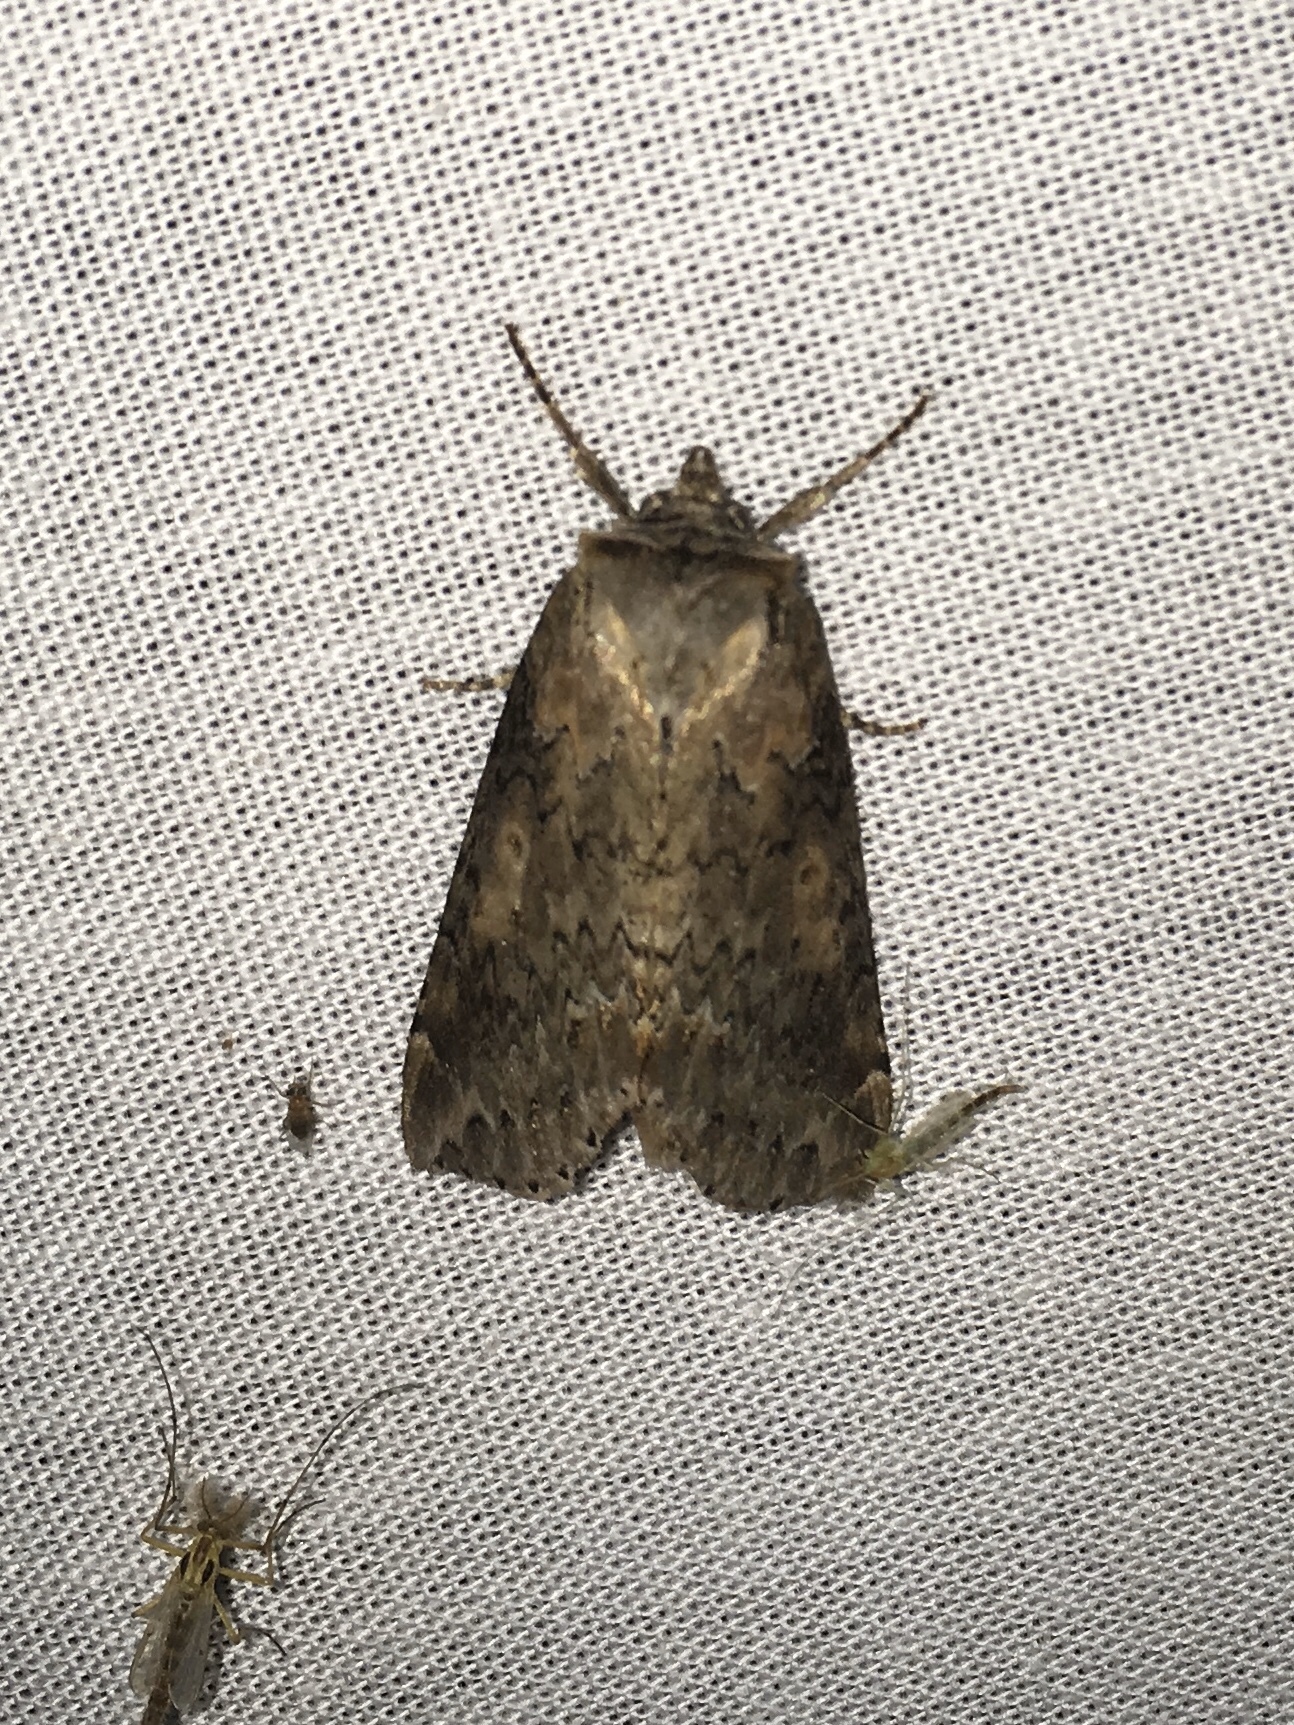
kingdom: Animalia
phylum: Arthropoda
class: Insecta
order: Lepidoptera
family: Drepanidae
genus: Pseudothyatira
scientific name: Pseudothyatira cymatophoroides
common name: Tufted thyatirid moth
